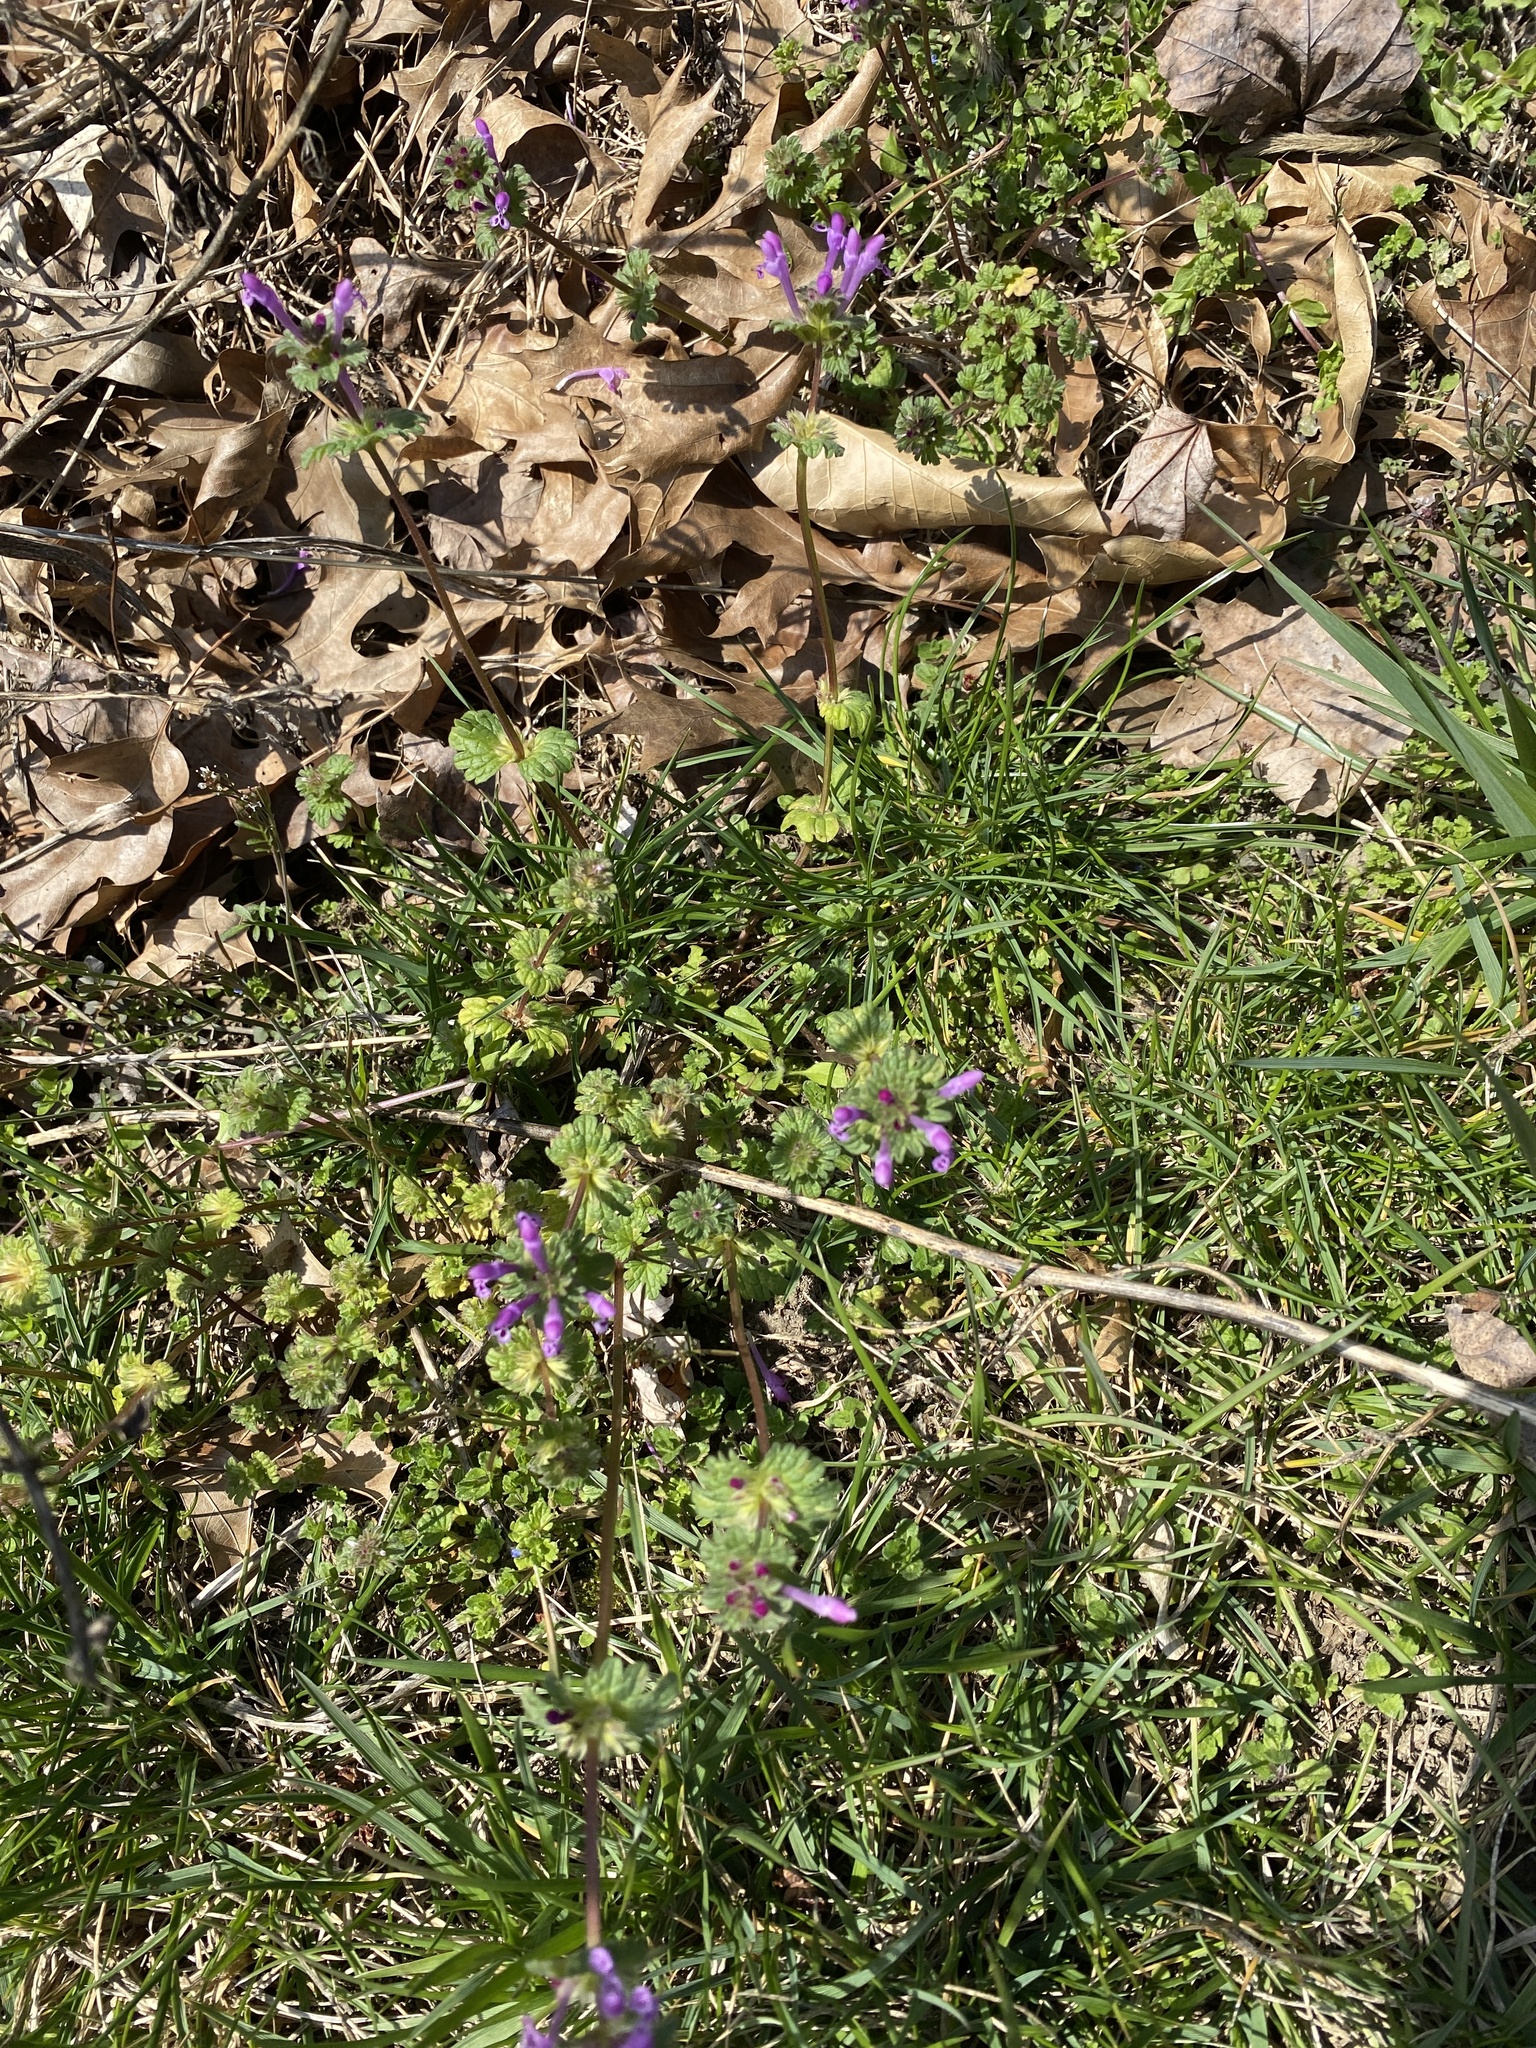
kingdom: Plantae
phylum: Tracheophyta
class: Magnoliopsida
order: Lamiales
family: Lamiaceae
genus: Lamium
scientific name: Lamium amplexicaule
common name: Henbit dead-nettle
